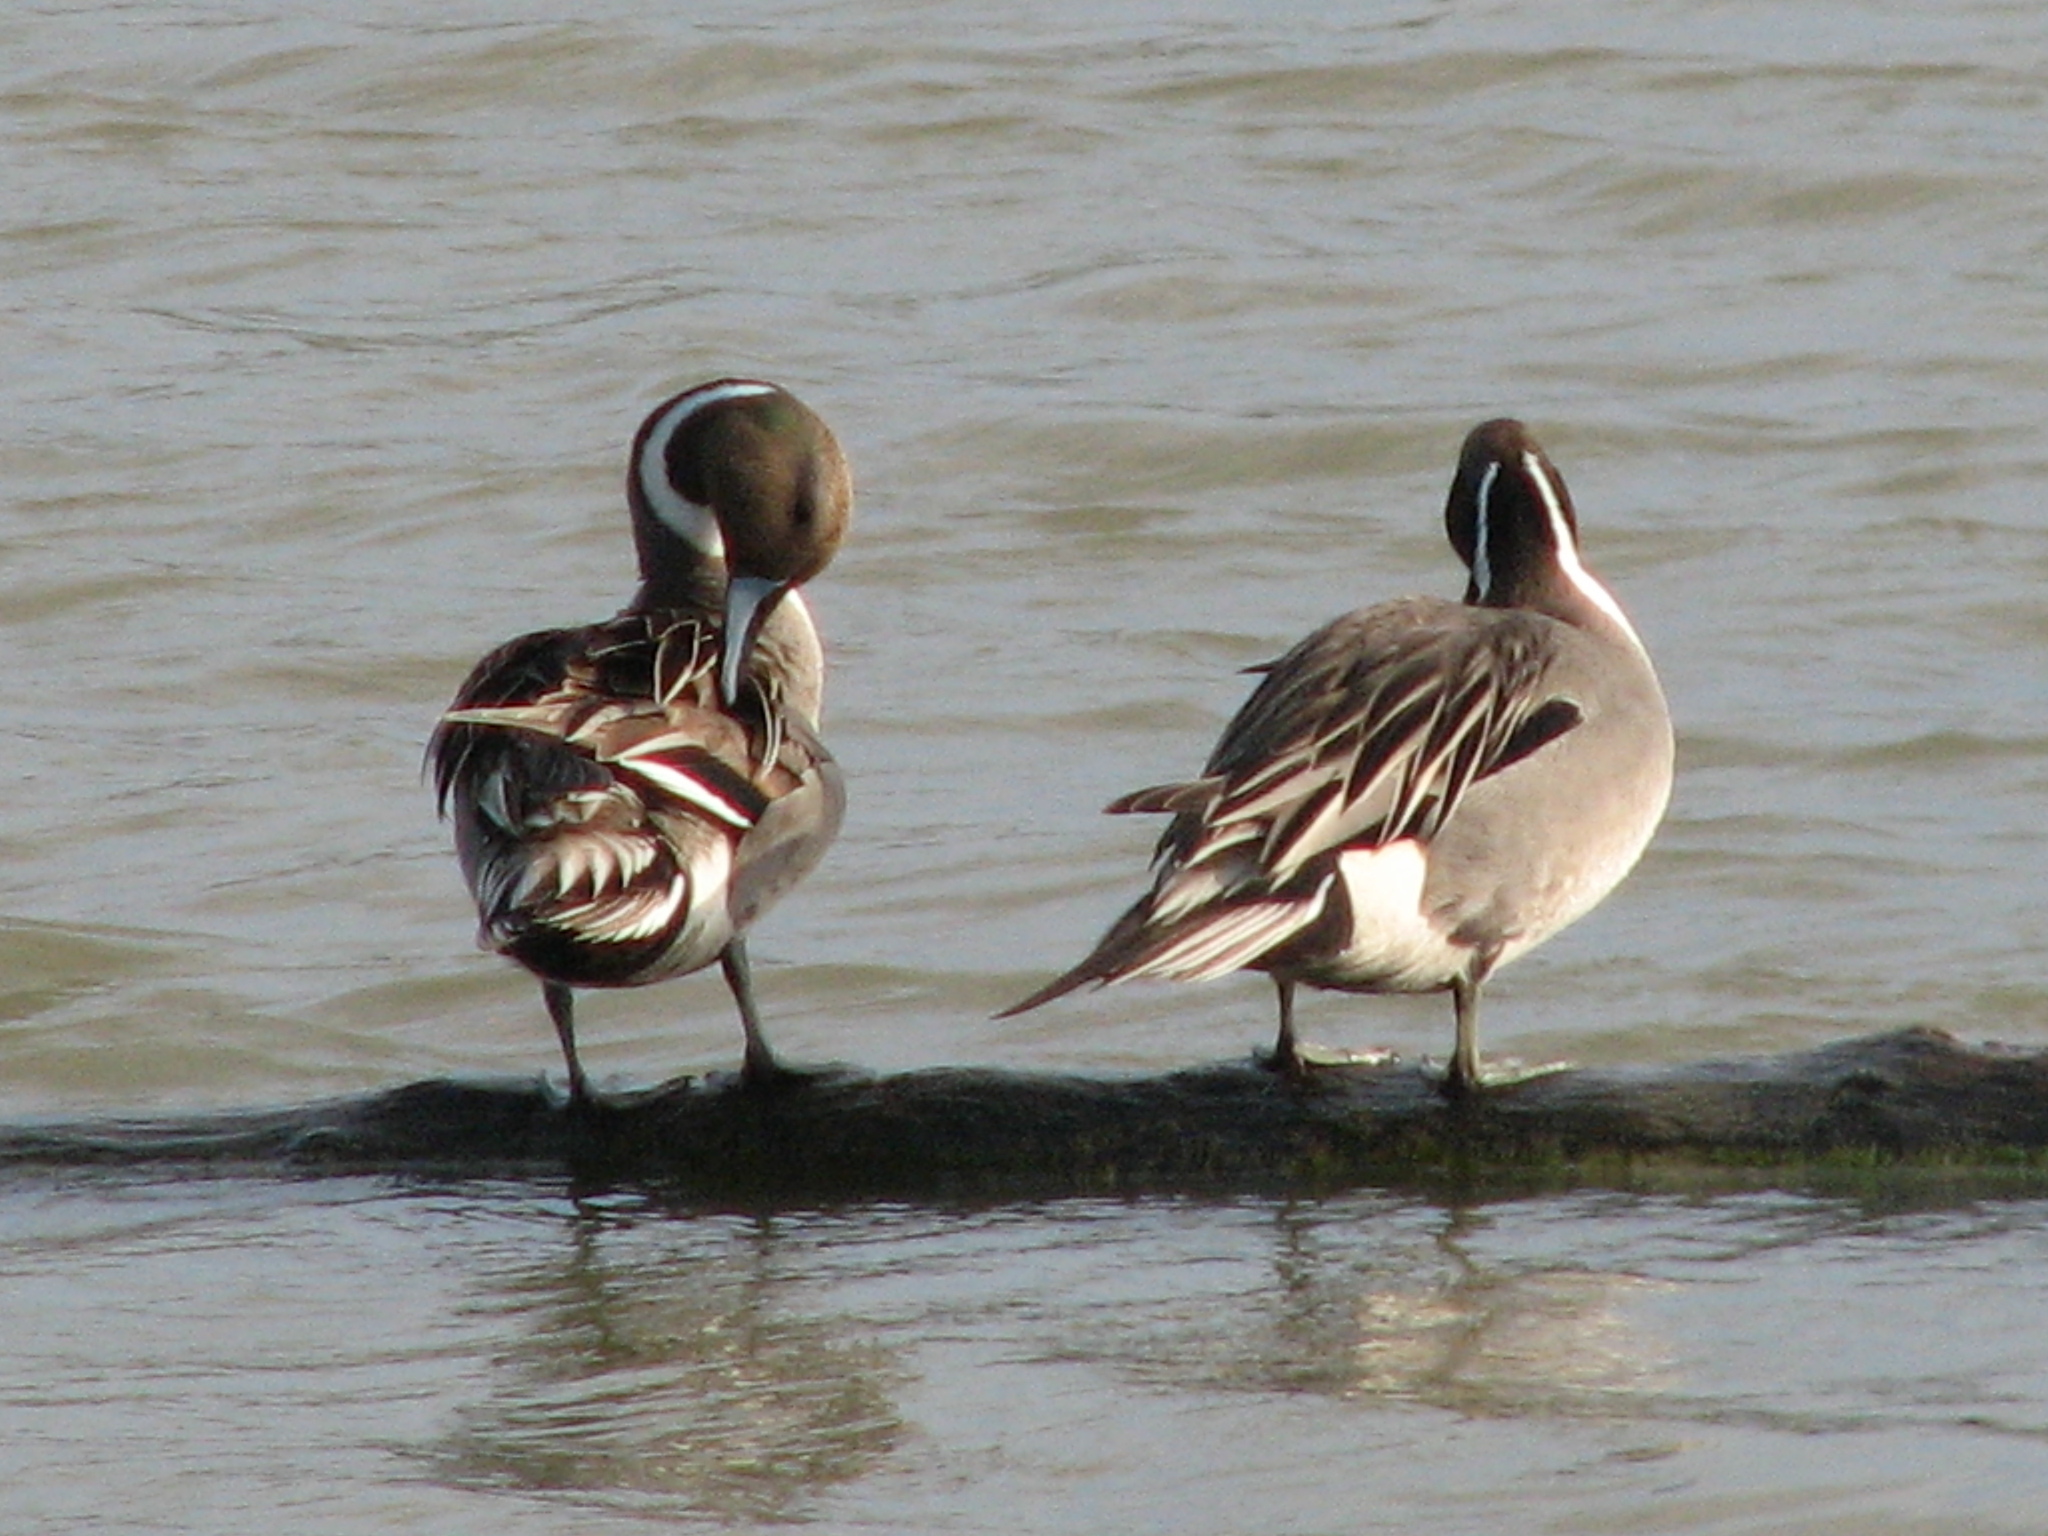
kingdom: Animalia
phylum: Chordata
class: Aves
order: Anseriformes
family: Anatidae
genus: Anas
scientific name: Anas acuta
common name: Northern pintail
